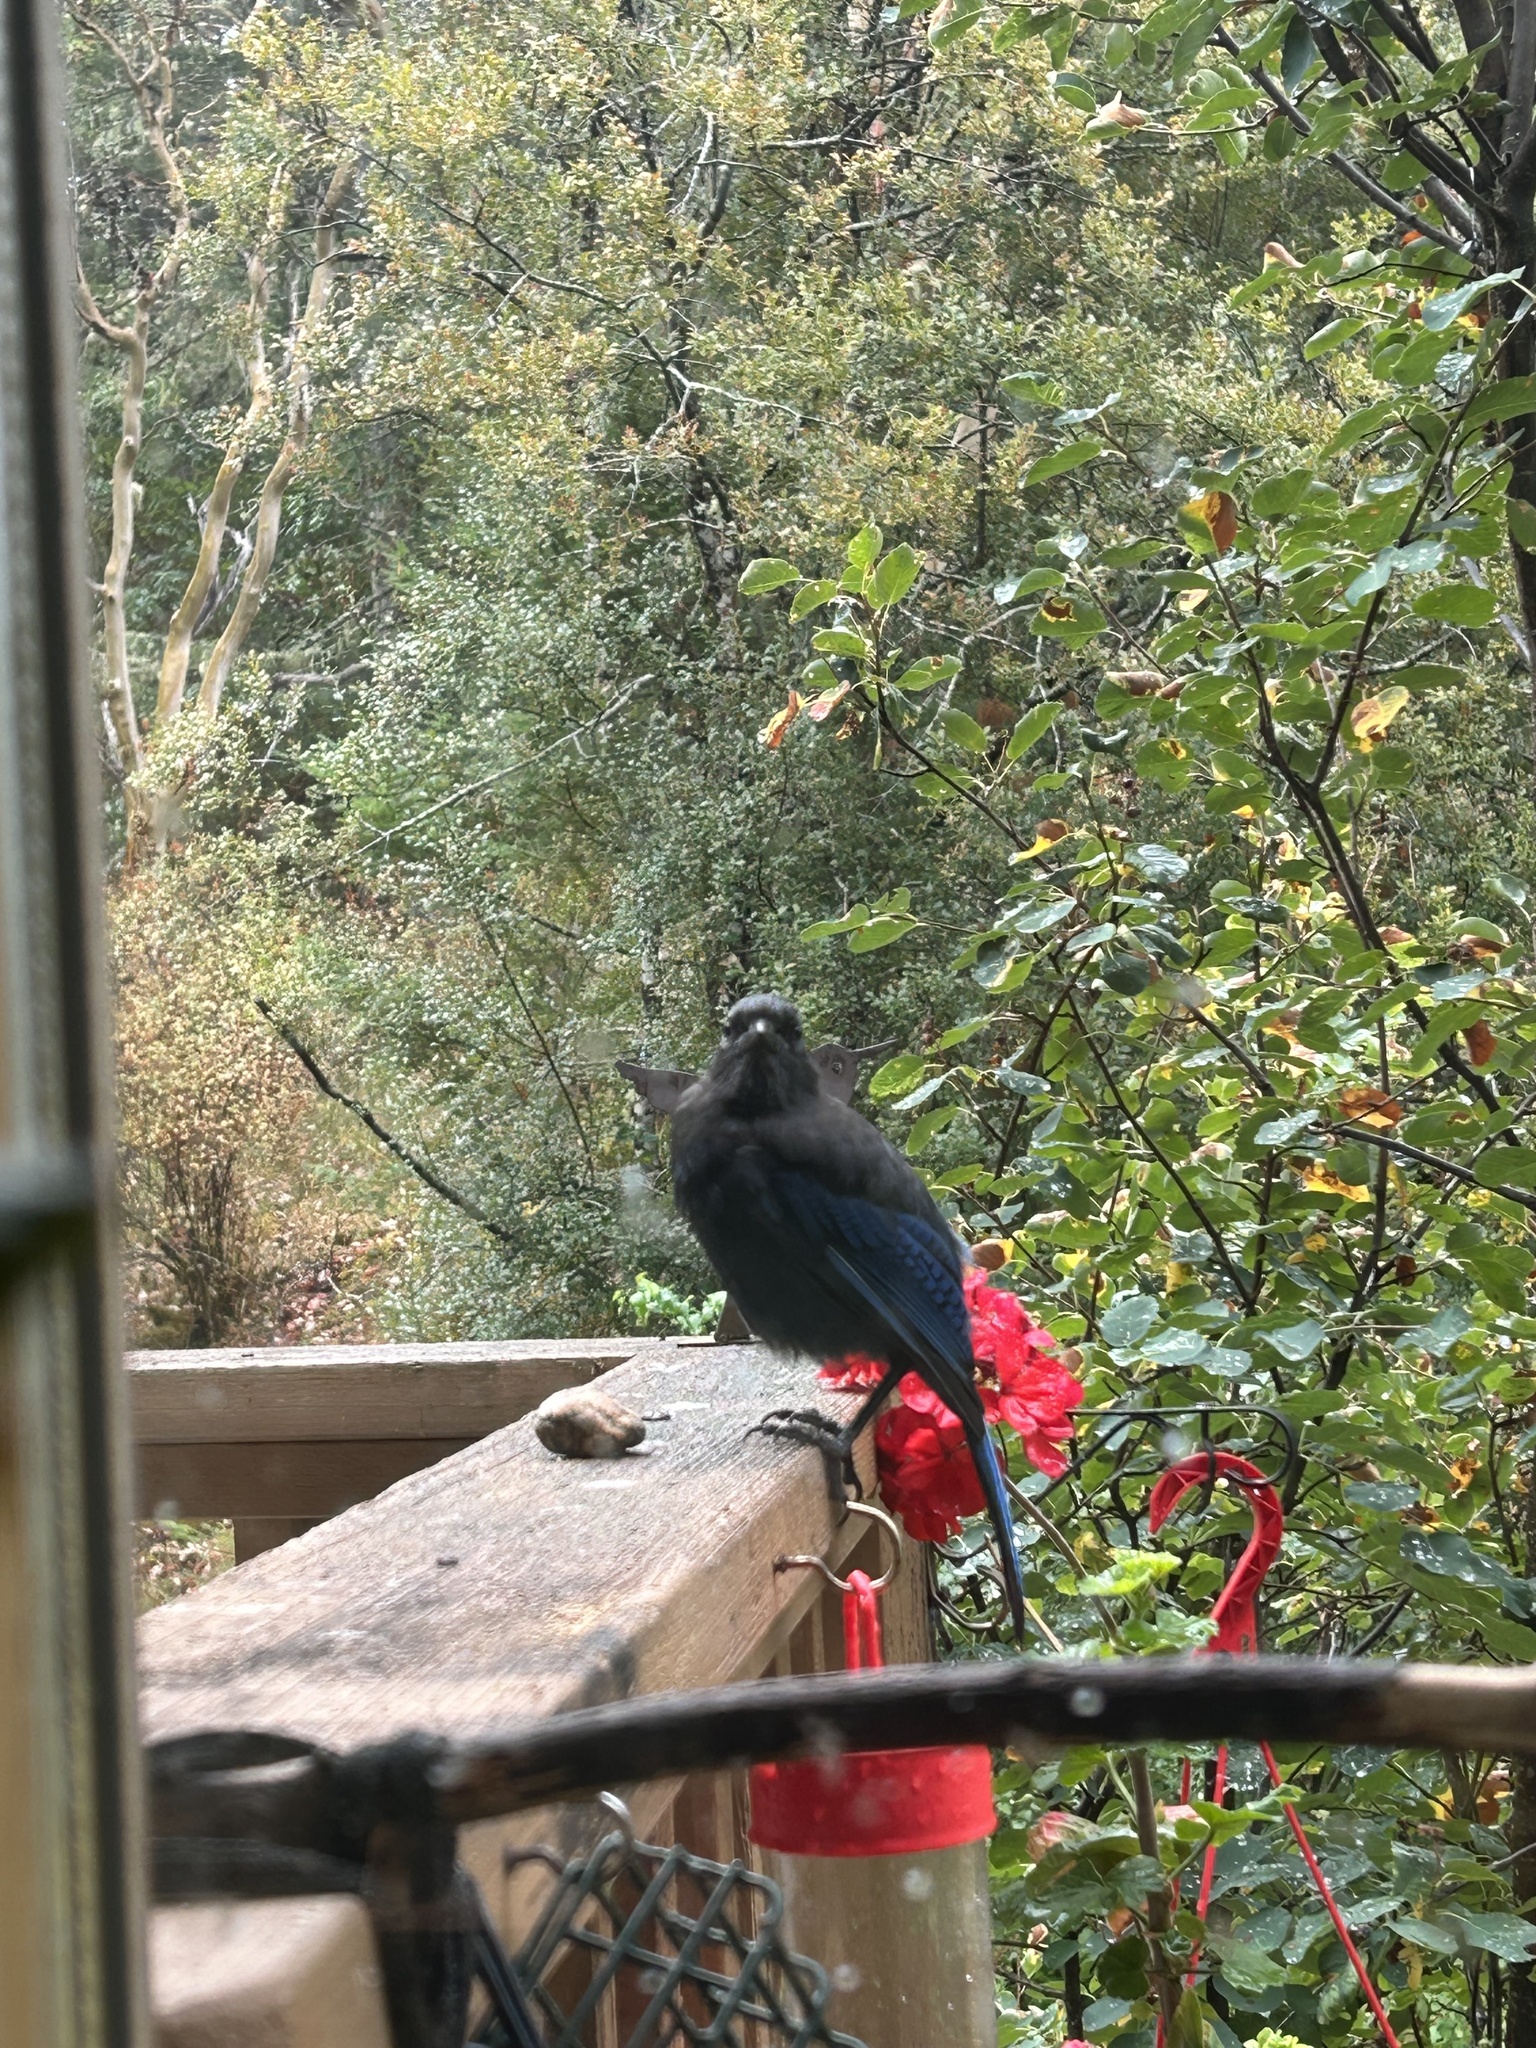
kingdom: Animalia
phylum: Chordata
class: Aves
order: Passeriformes
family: Corvidae
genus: Cyanocitta
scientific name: Cyanocitta stelleri
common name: Steller's jay
